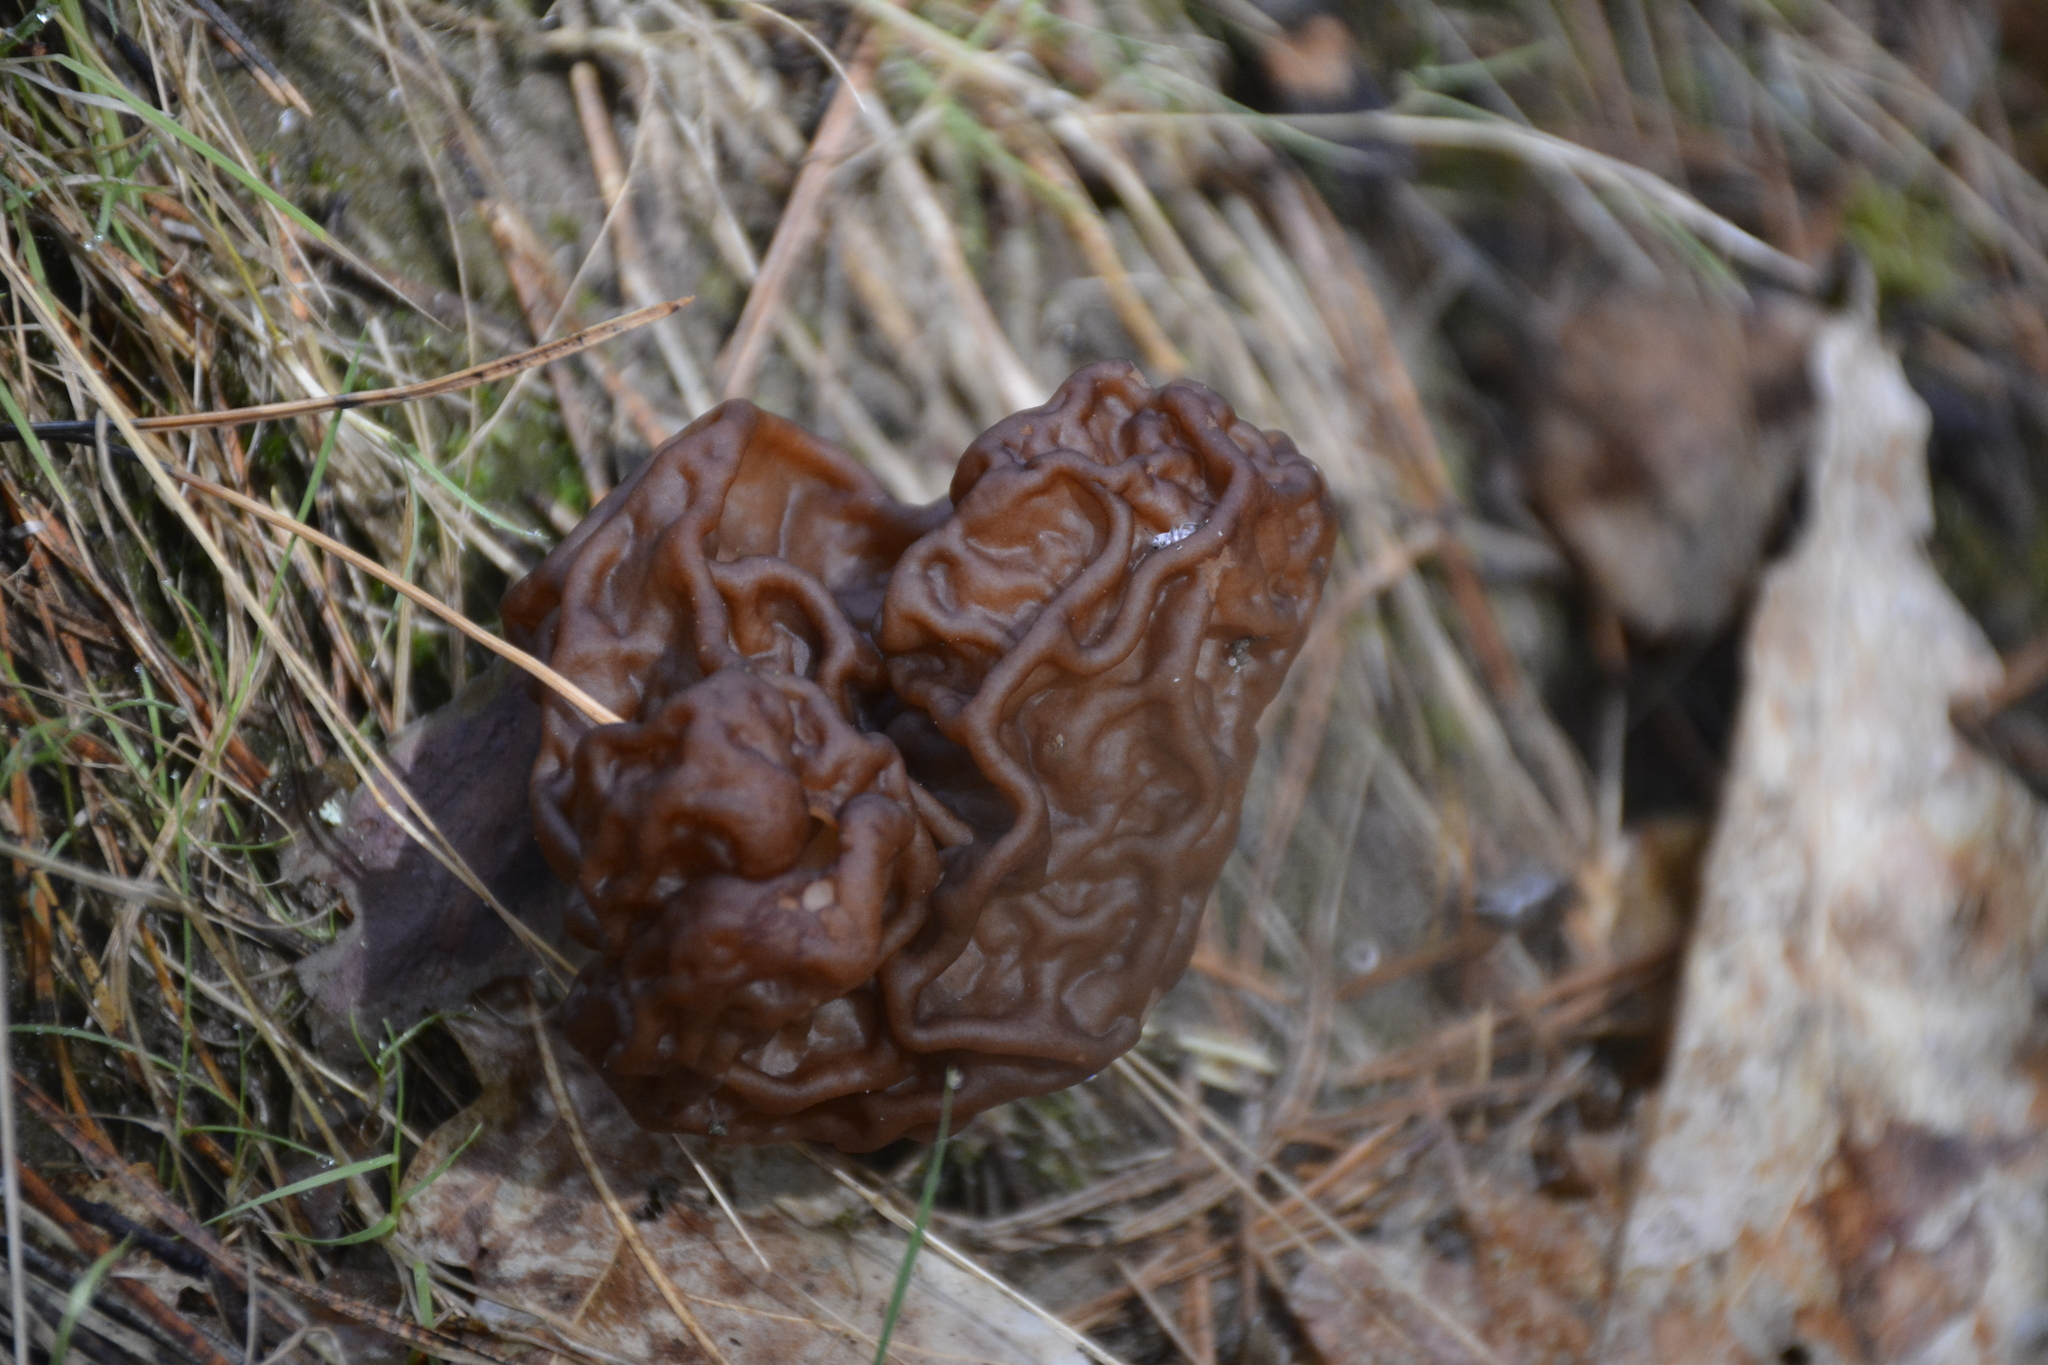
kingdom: Fungi
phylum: Ascomycota
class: Pezizomycetes
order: Pezizales
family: Discinaceae
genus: Gyromitra
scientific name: Gyromitra esculenta
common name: False morel
